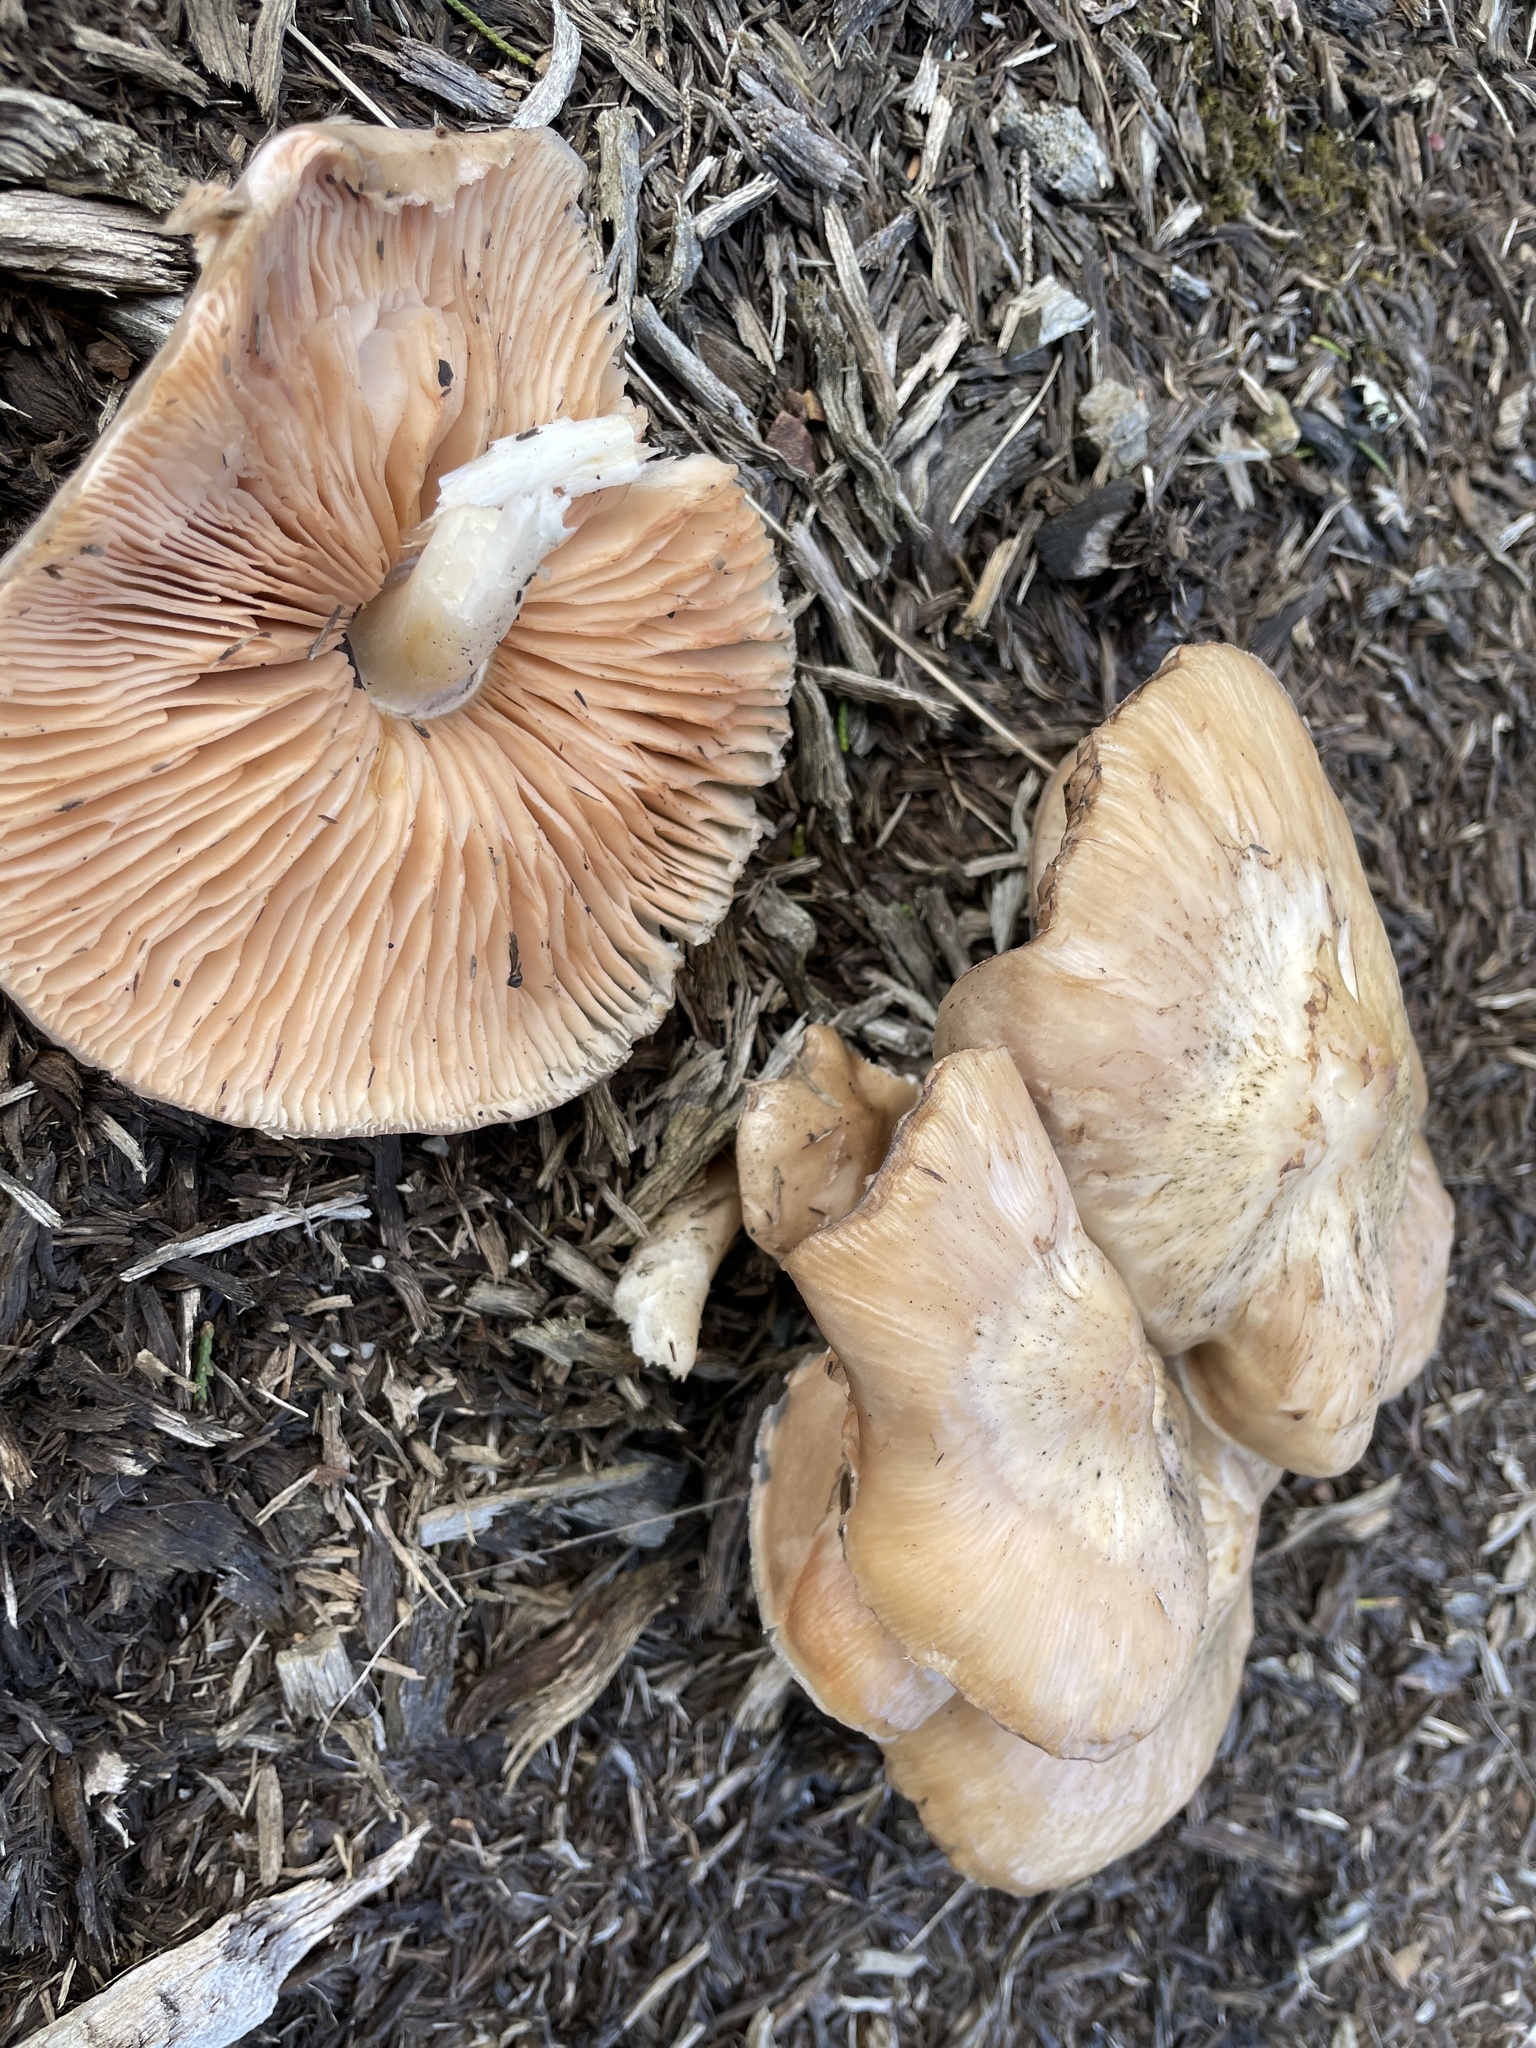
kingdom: Fungi
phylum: Basidiomycota
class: Agaricomycetes
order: Agaricales
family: Pluteaceae
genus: Pluteus
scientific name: Pluteus cervinus
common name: Deer shield
